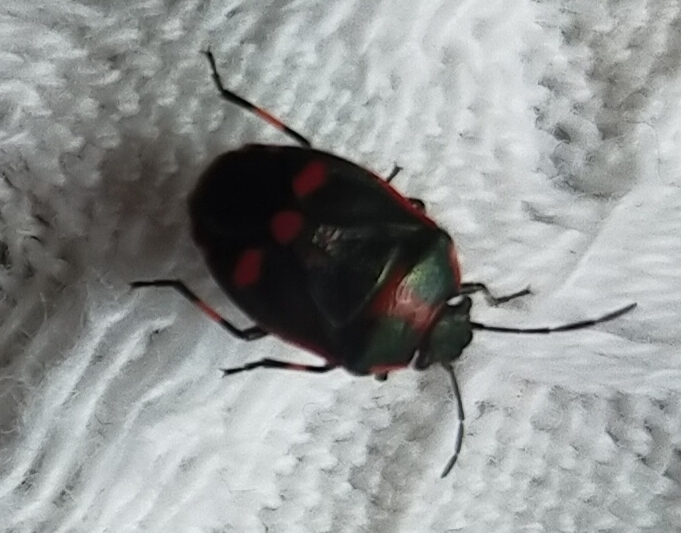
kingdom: Animalia
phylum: Arthropoda
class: Insecta
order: Hemiptera
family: Pentatomidae
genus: Eurydema
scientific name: Eurydema oleracea
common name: Cabbage bug
